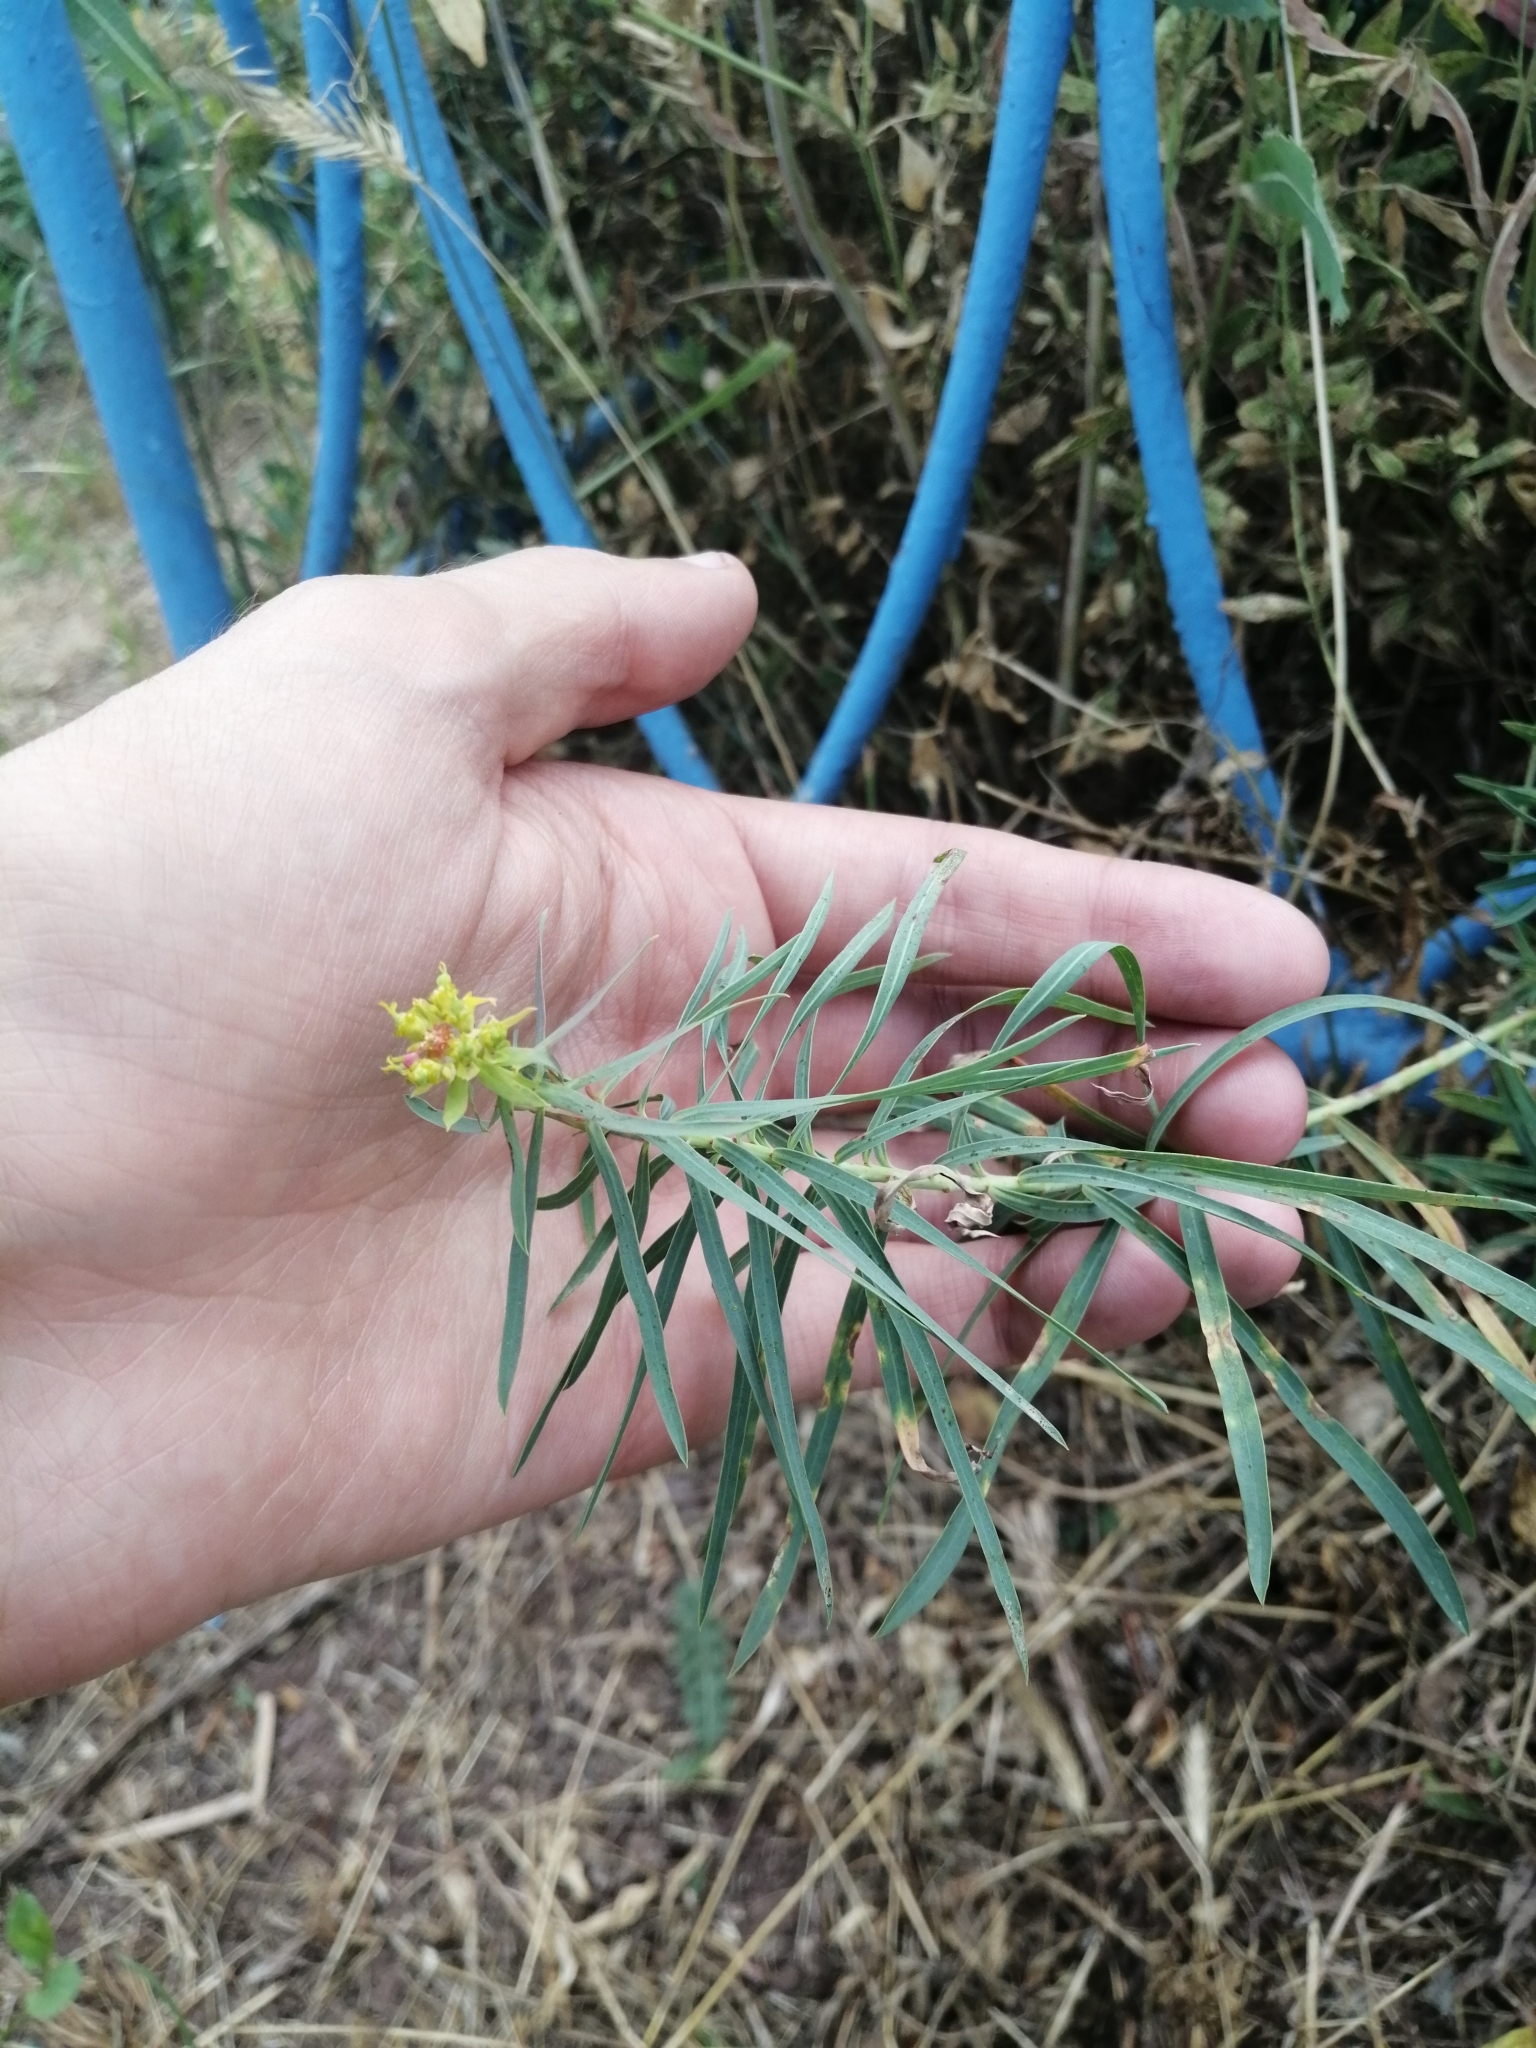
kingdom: Plantae
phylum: Tracheophyta
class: Magnoliopsida
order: Malpighiales
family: Euphorbiaceae
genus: Euphorbia
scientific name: Euphorbia virgata
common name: Leafy spurge
